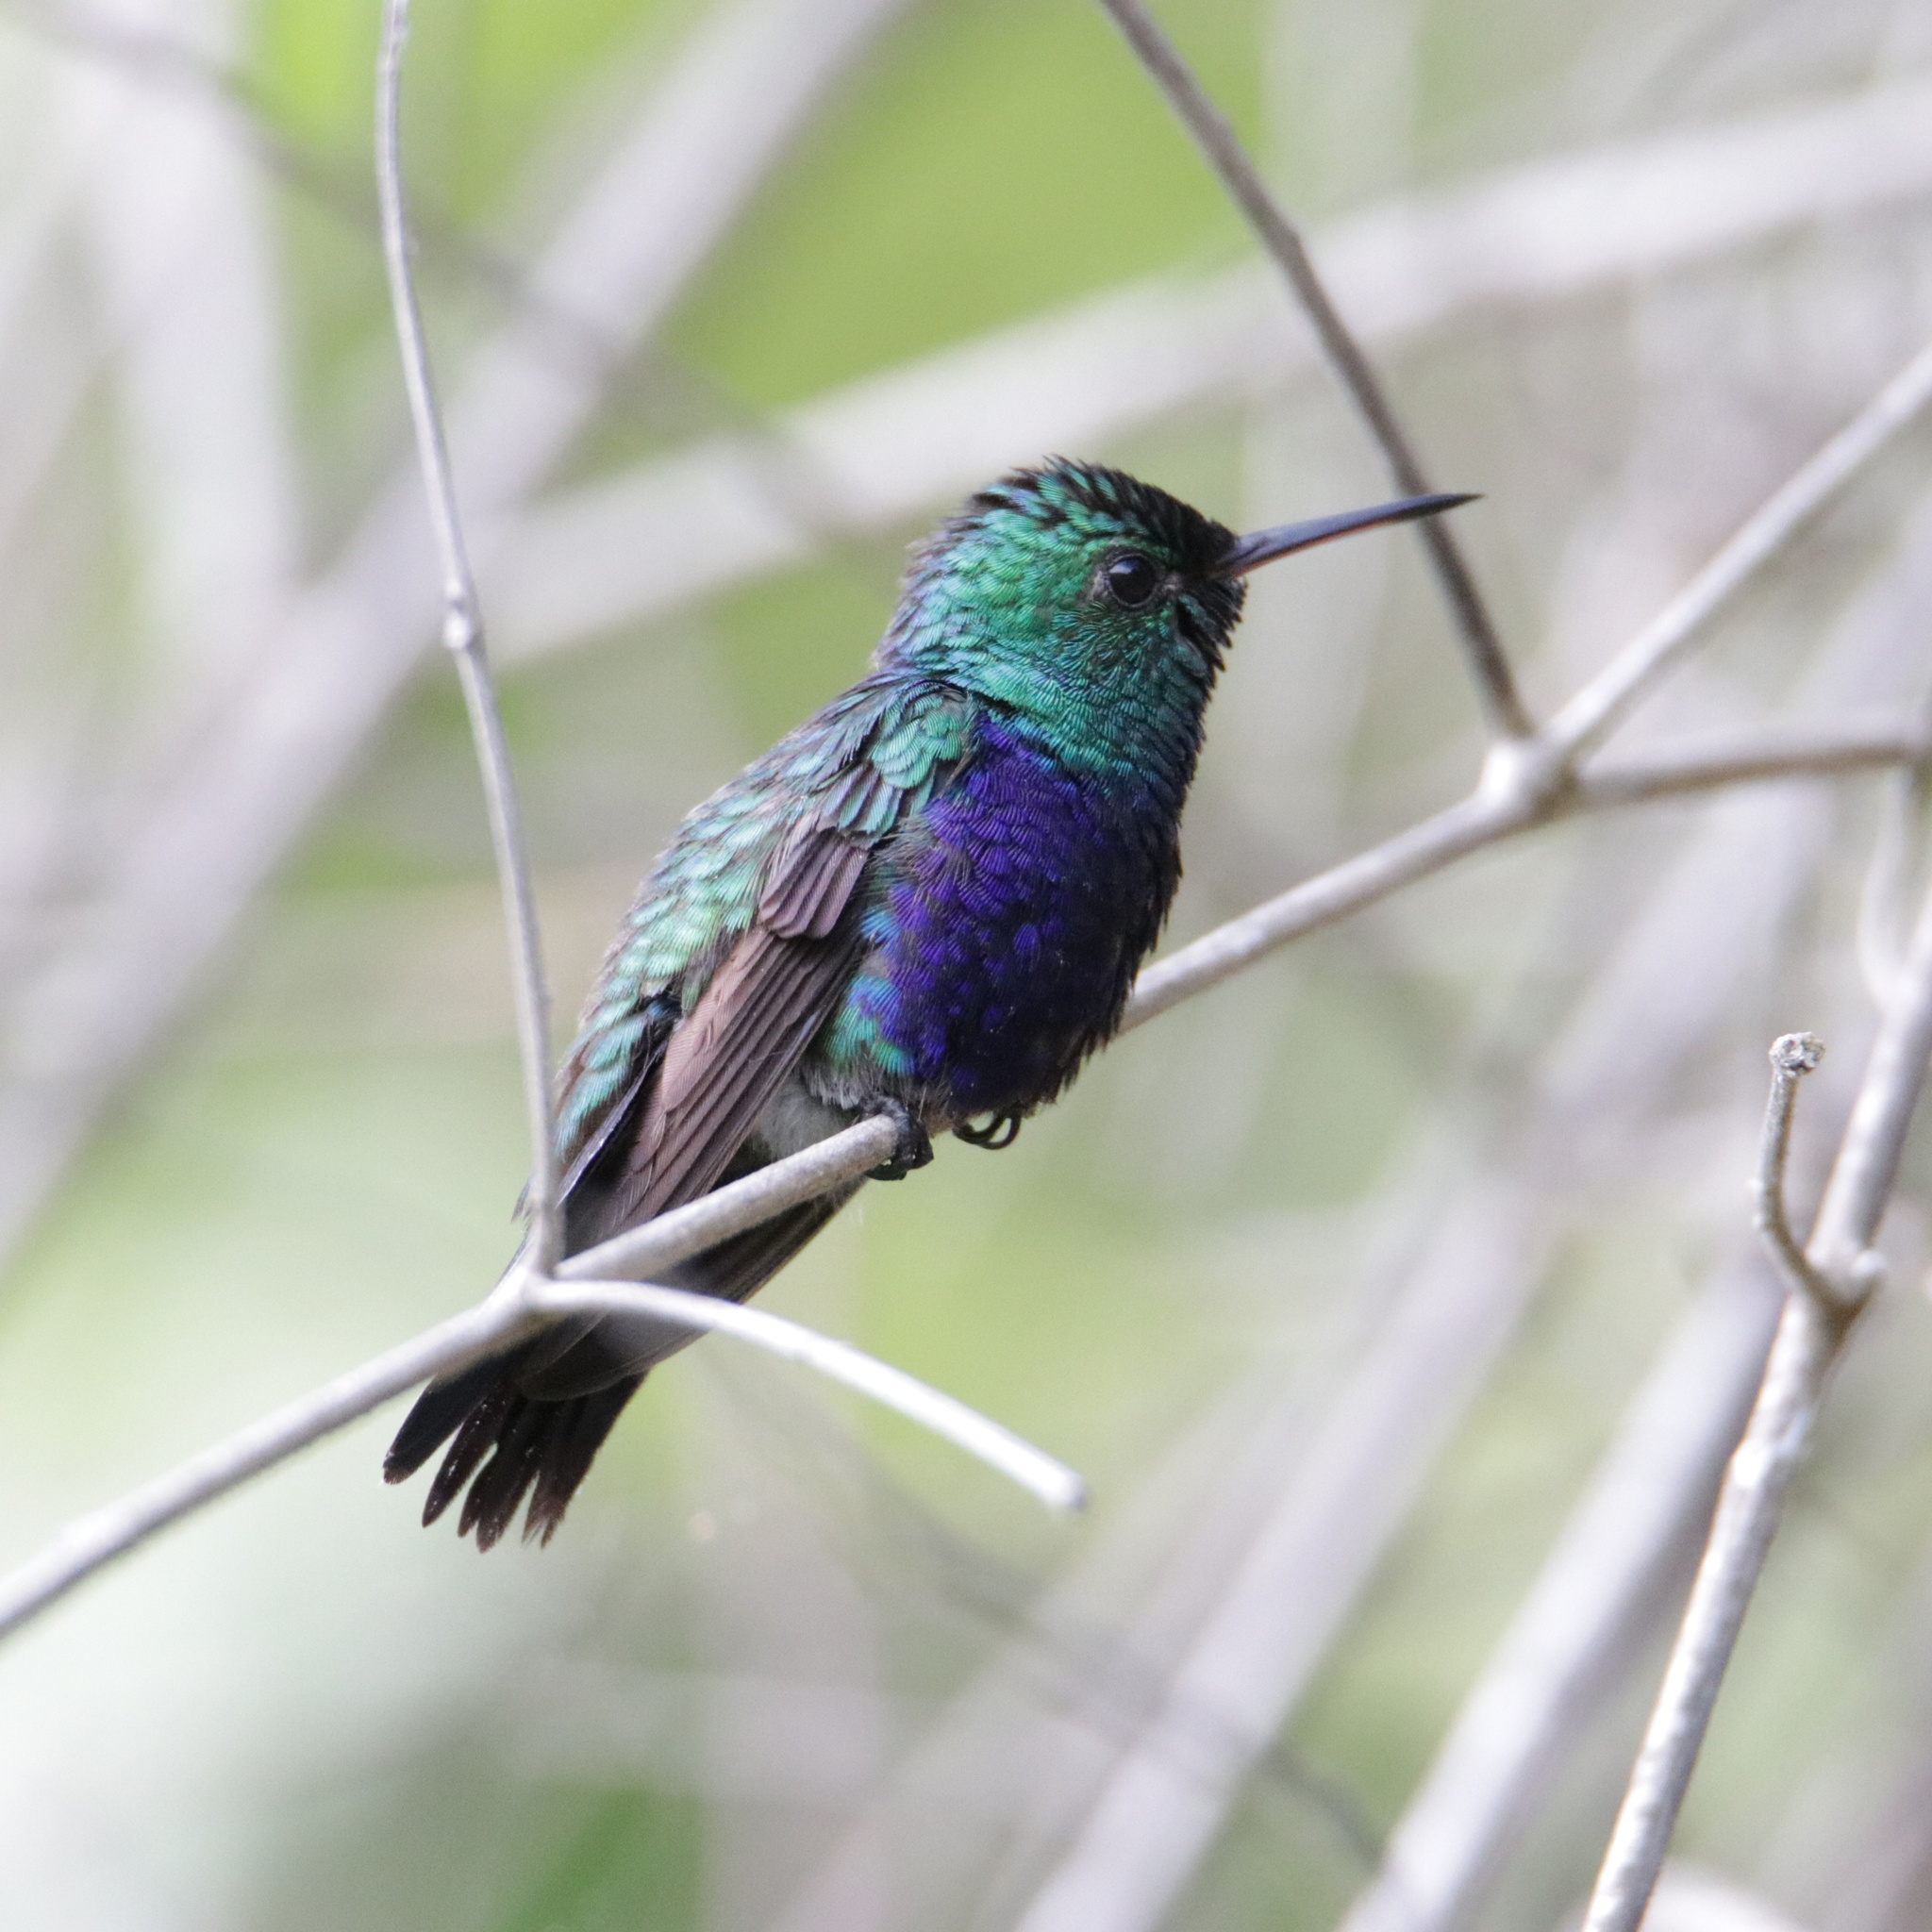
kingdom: Animalia
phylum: Chordata
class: Aves
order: Apodiformes
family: Trochilidae
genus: Chlorestes
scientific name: Chlorestes julie
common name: Violet-bellied hummingbird
